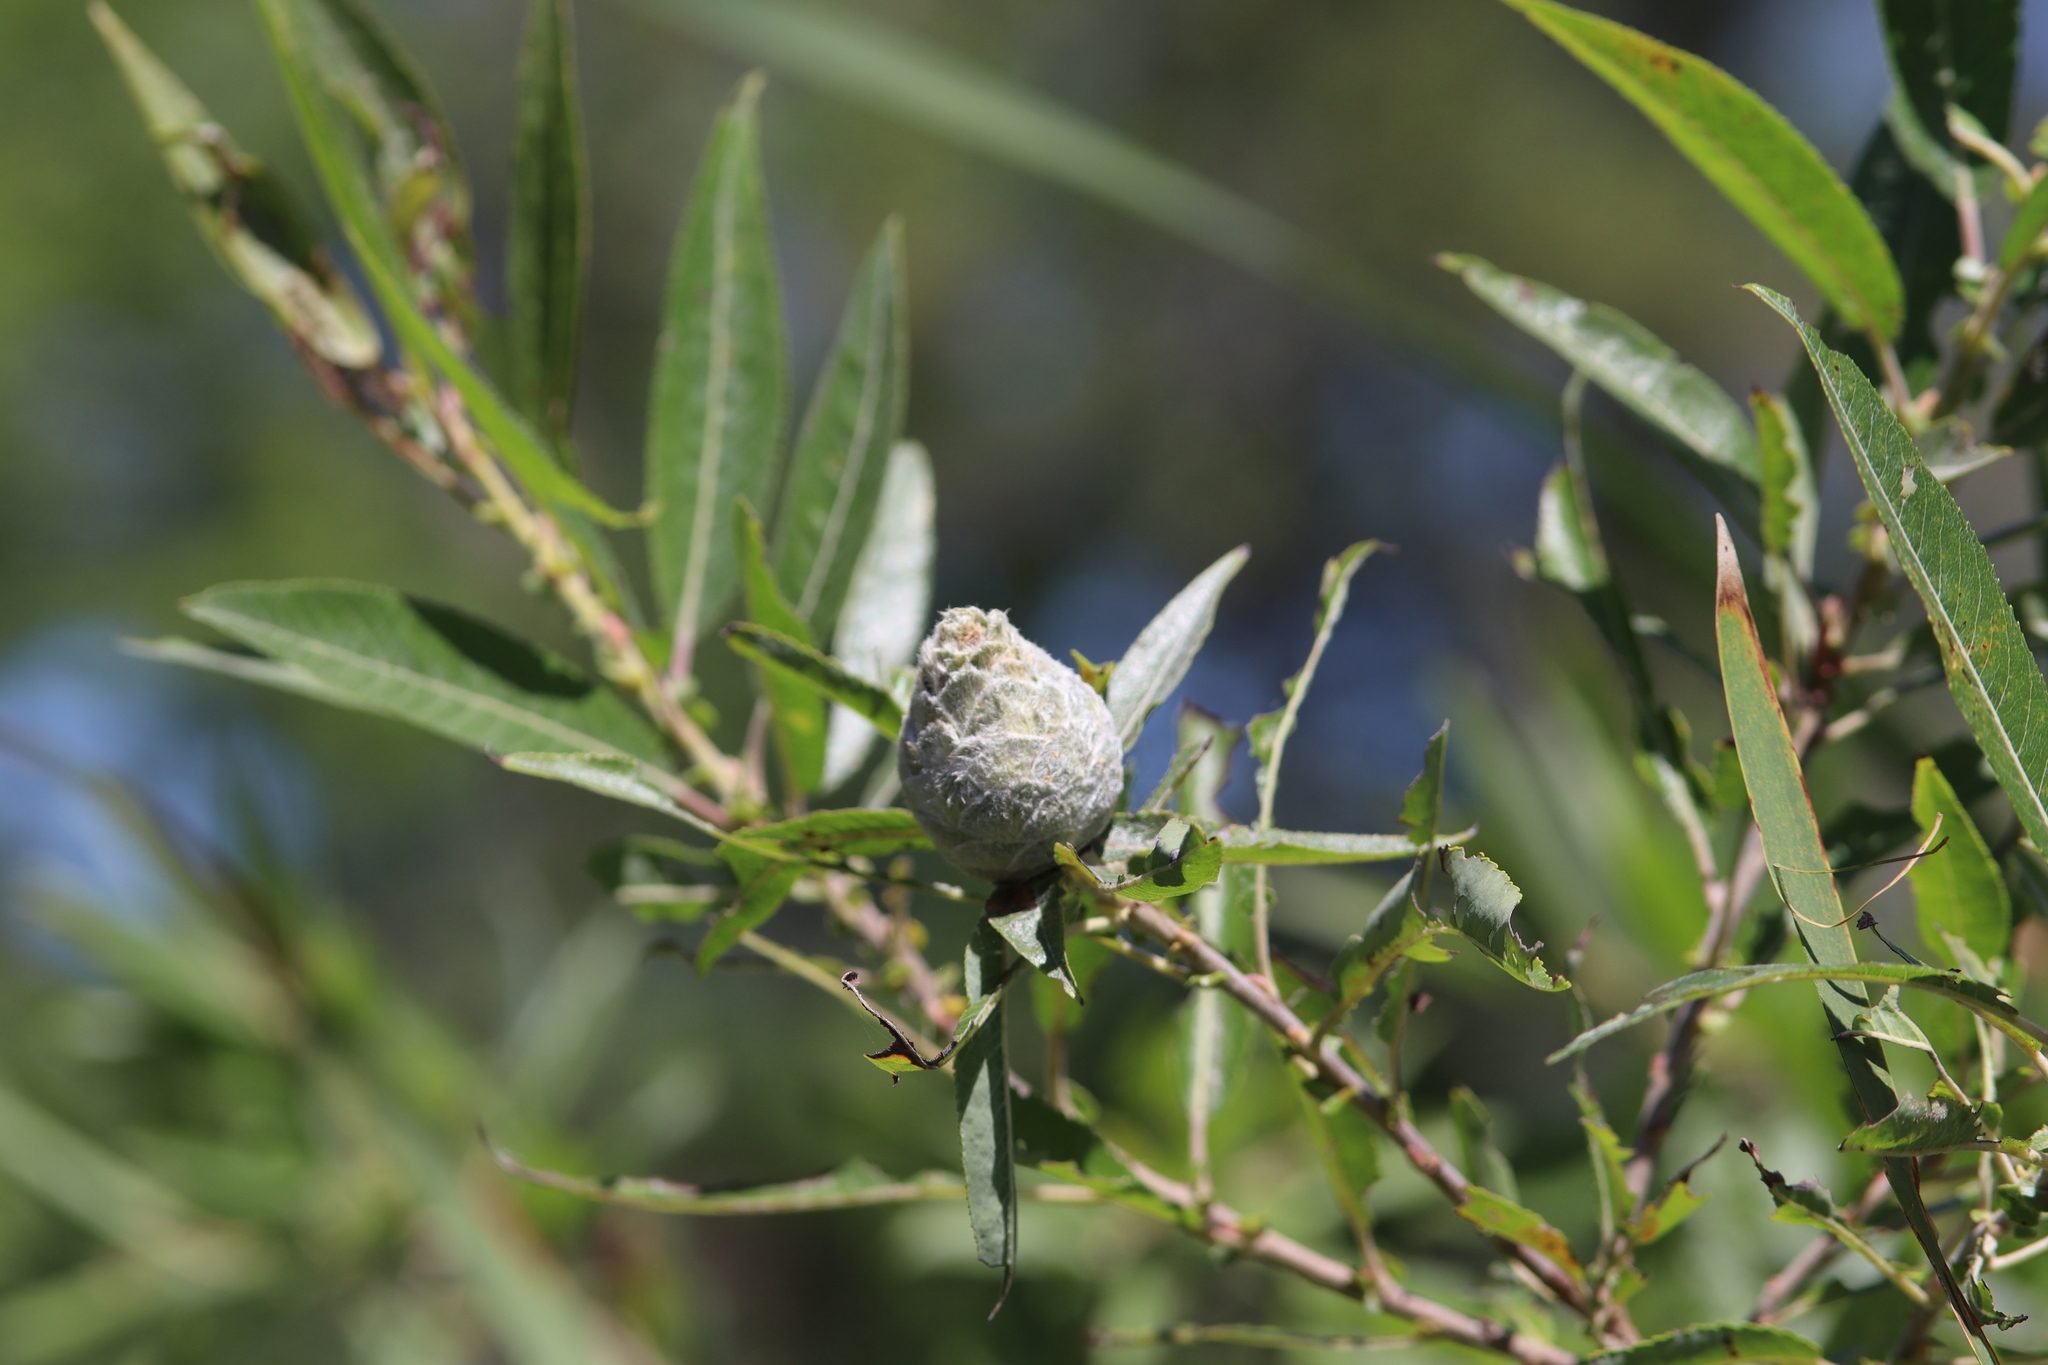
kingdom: Animalia
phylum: Arthropoda
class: Insecta
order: Diptera
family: Cecidomyiidae
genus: Rabdophaga
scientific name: Rabdophaga strobiloides
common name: Willow pinecone gall midge
